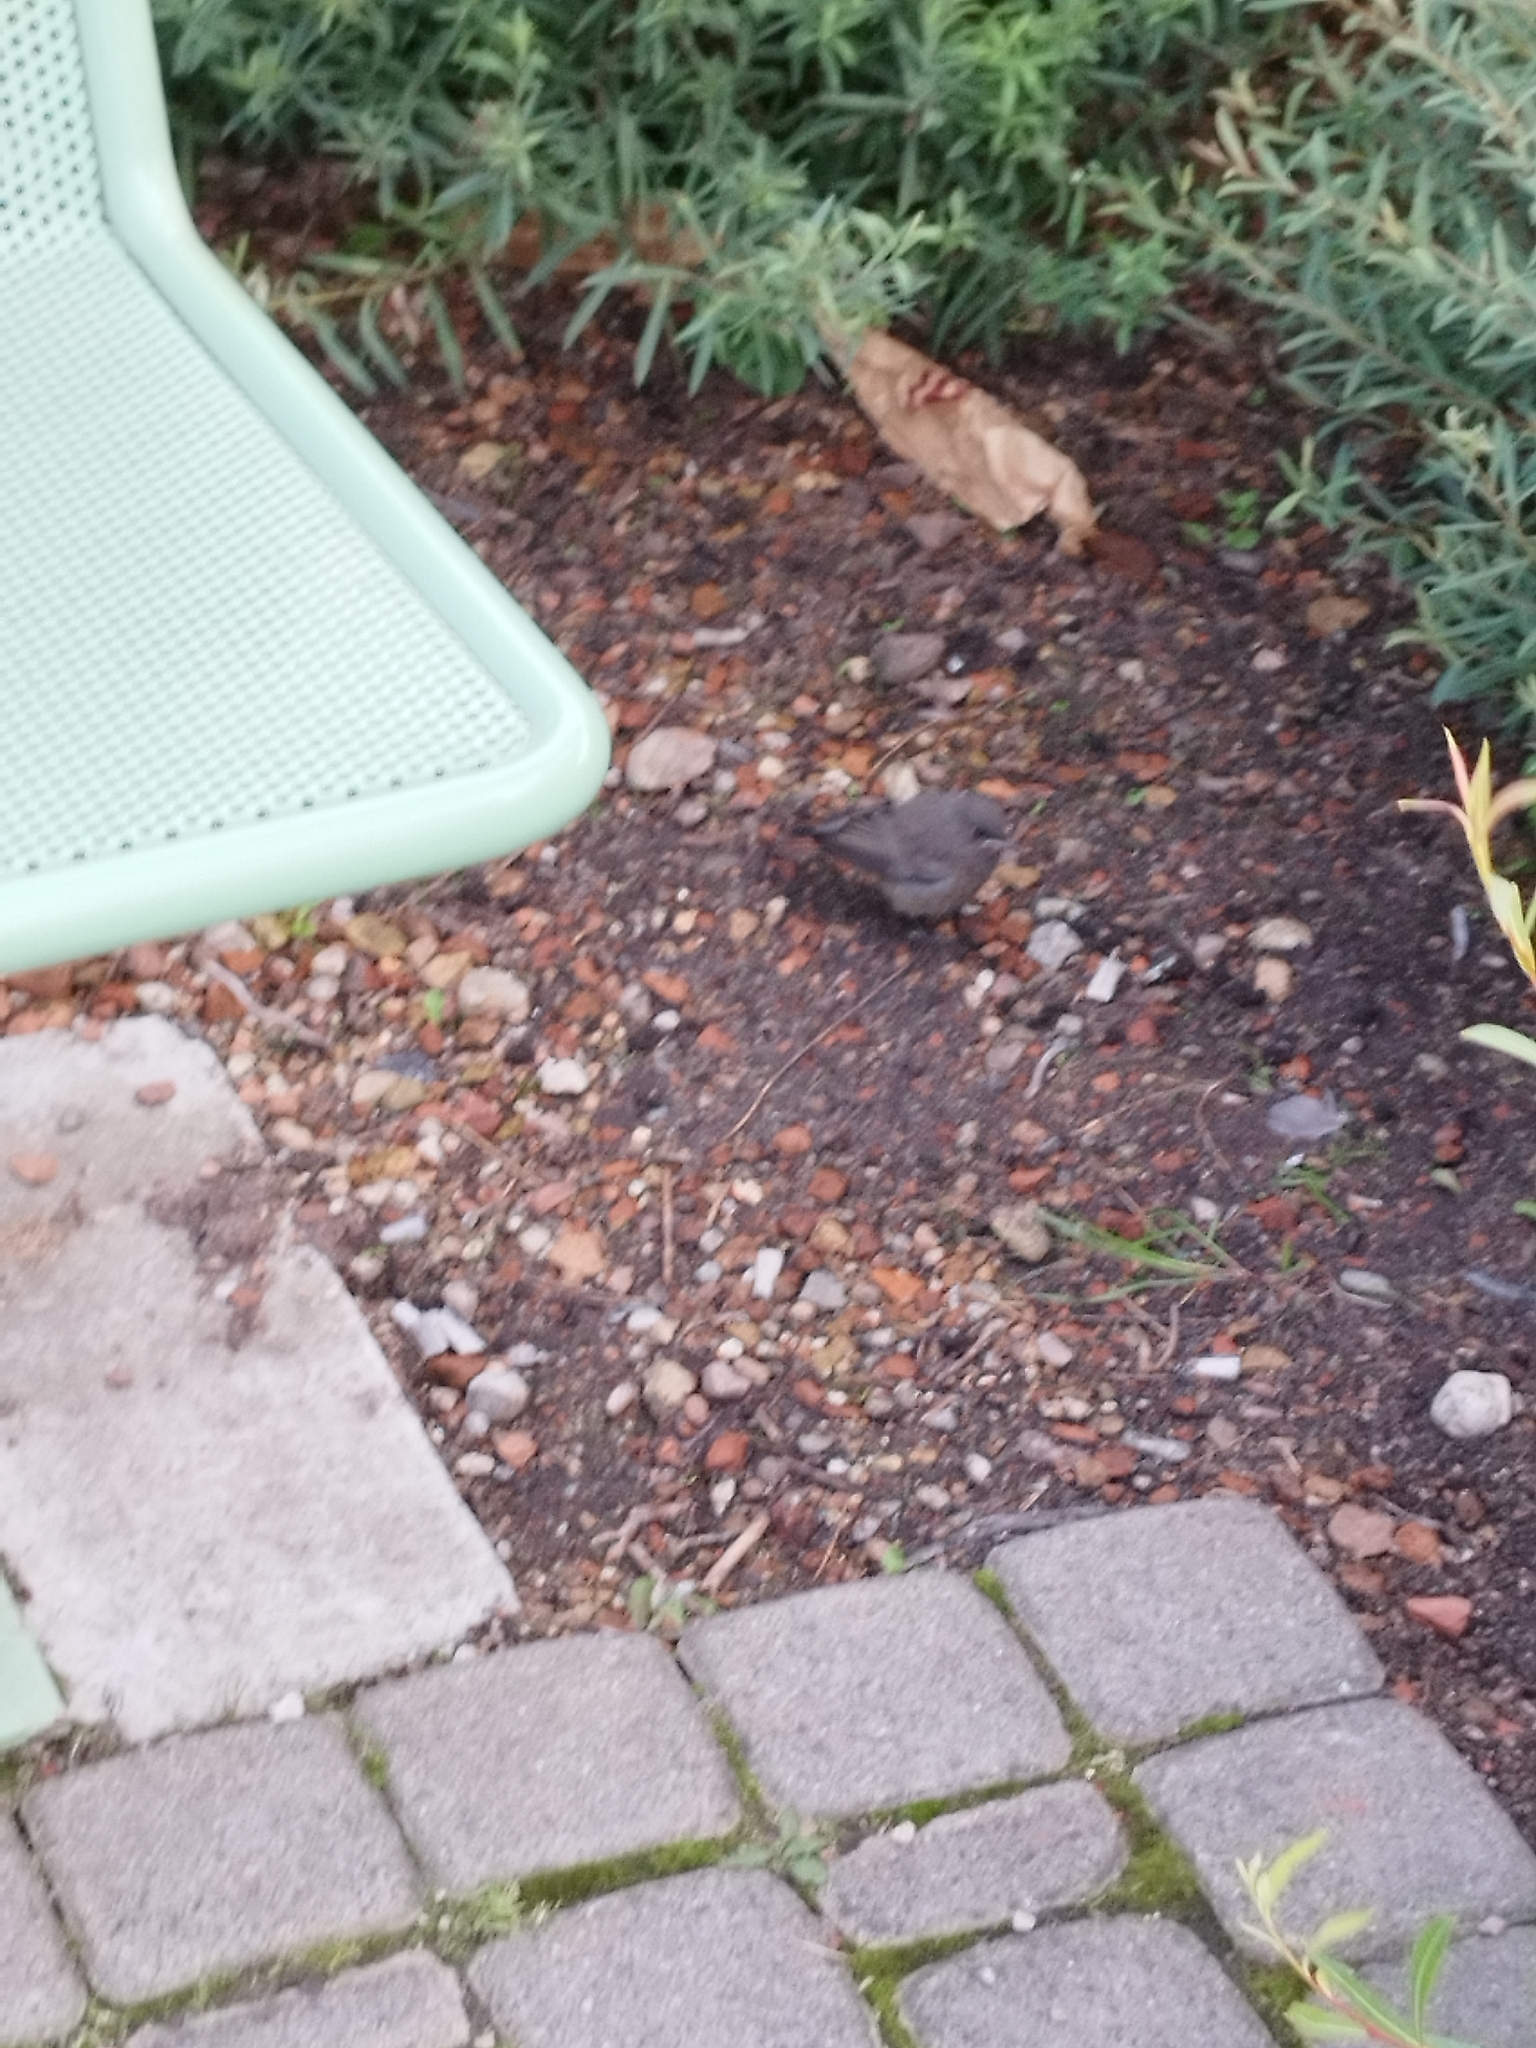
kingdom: Animalia
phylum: Chordata
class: Aves
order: Passeriformes
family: Muscicapidae
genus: Phoenicurus
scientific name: Phoenicurus ochruros
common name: Black redstart
